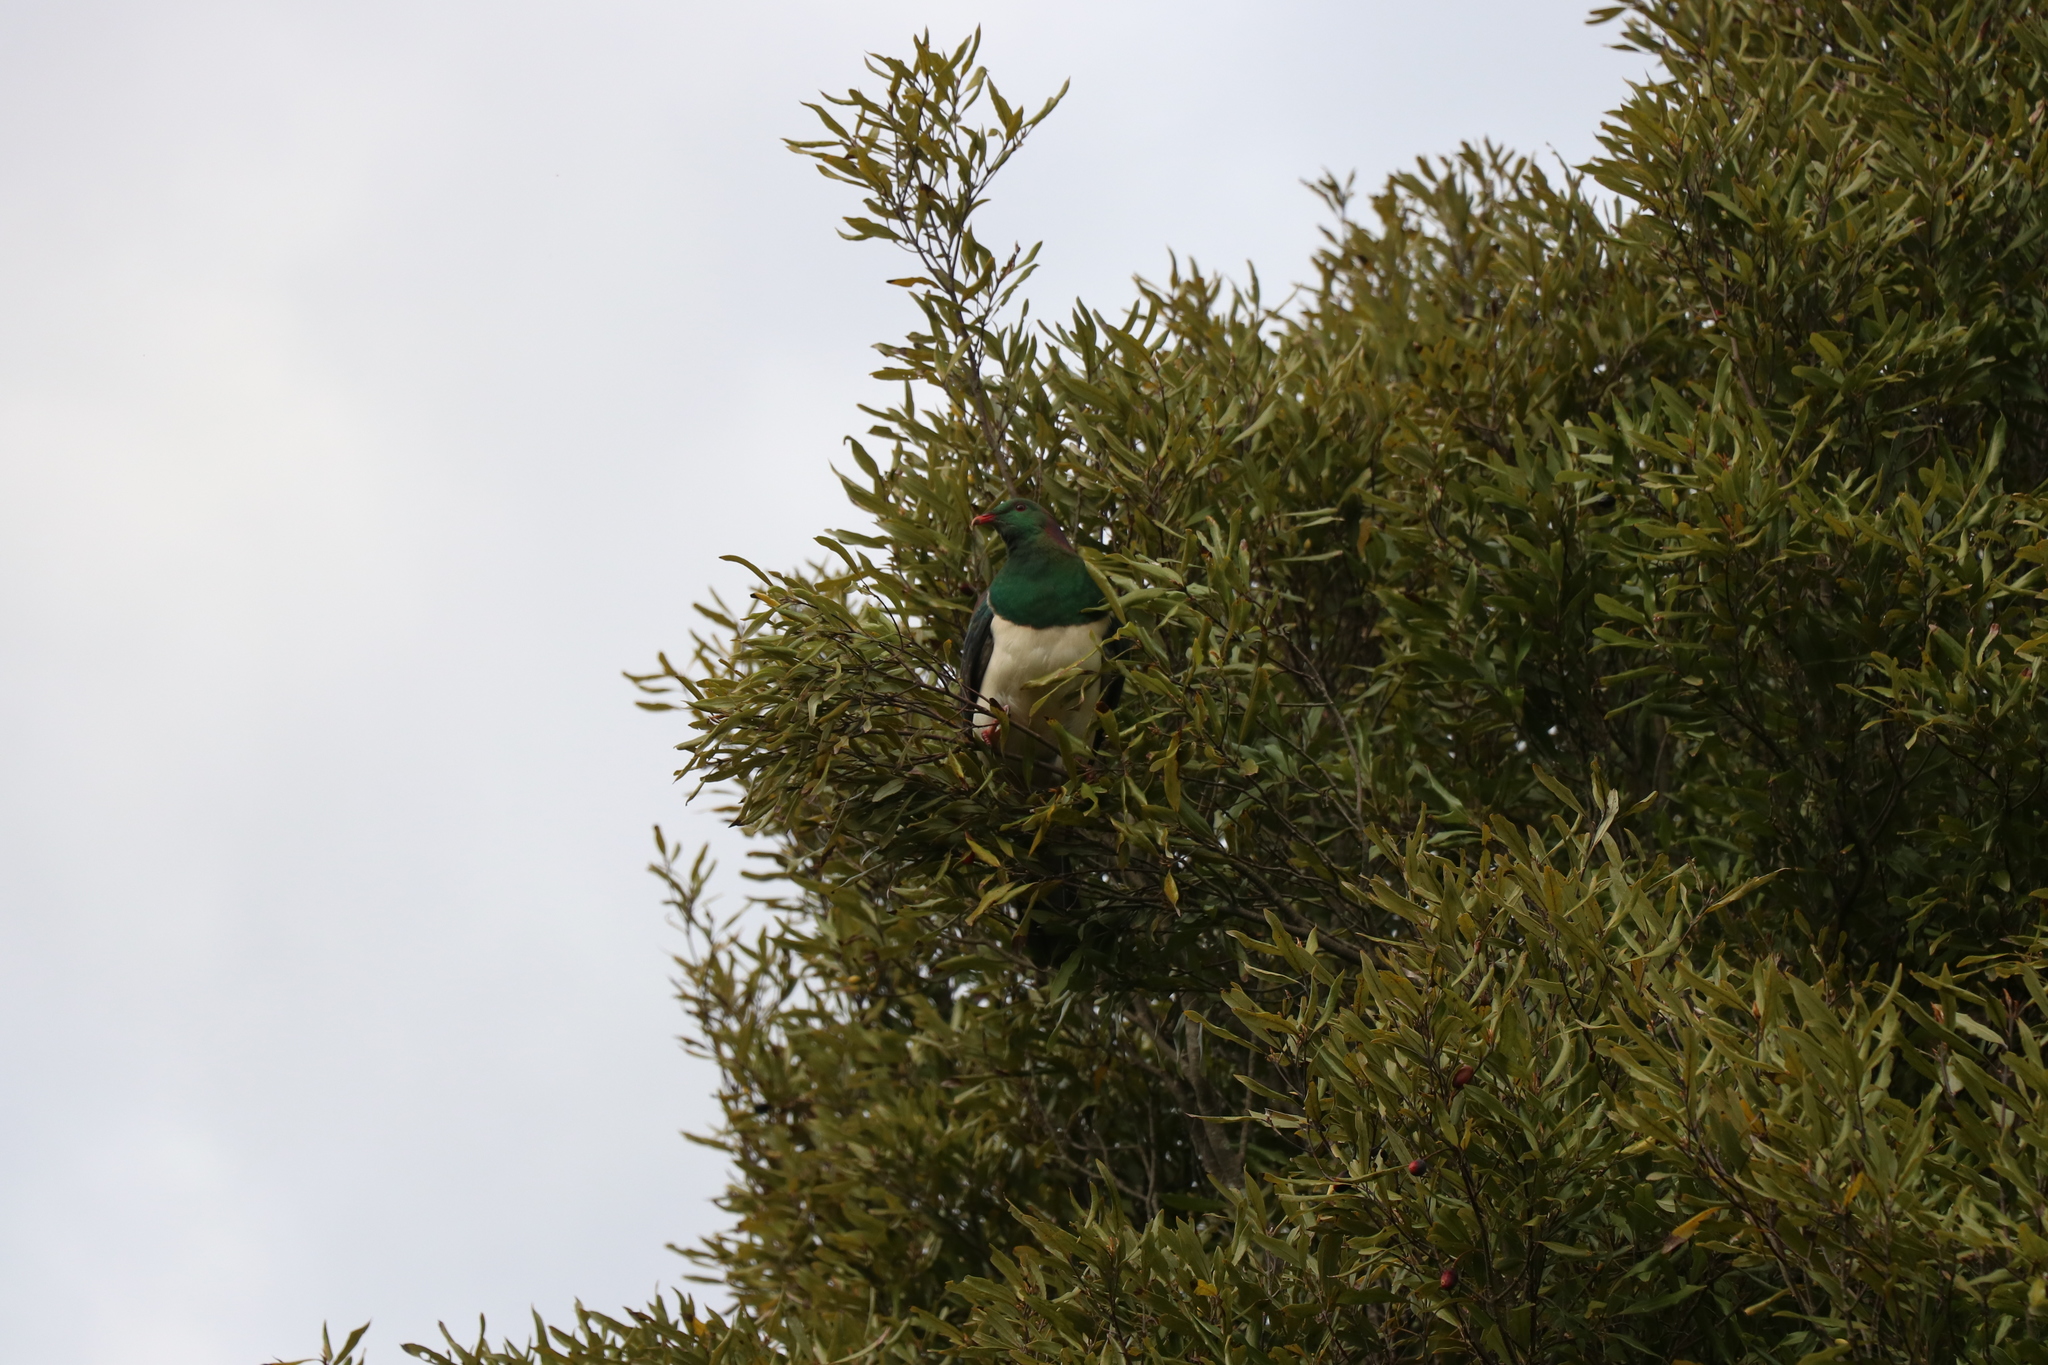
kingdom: Animalia
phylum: Chordata
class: Aves
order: Columbiformes
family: Columbidae
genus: Hemiphaga
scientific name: Hemiphaga novaeseelandiae
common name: New zealand pigeon
